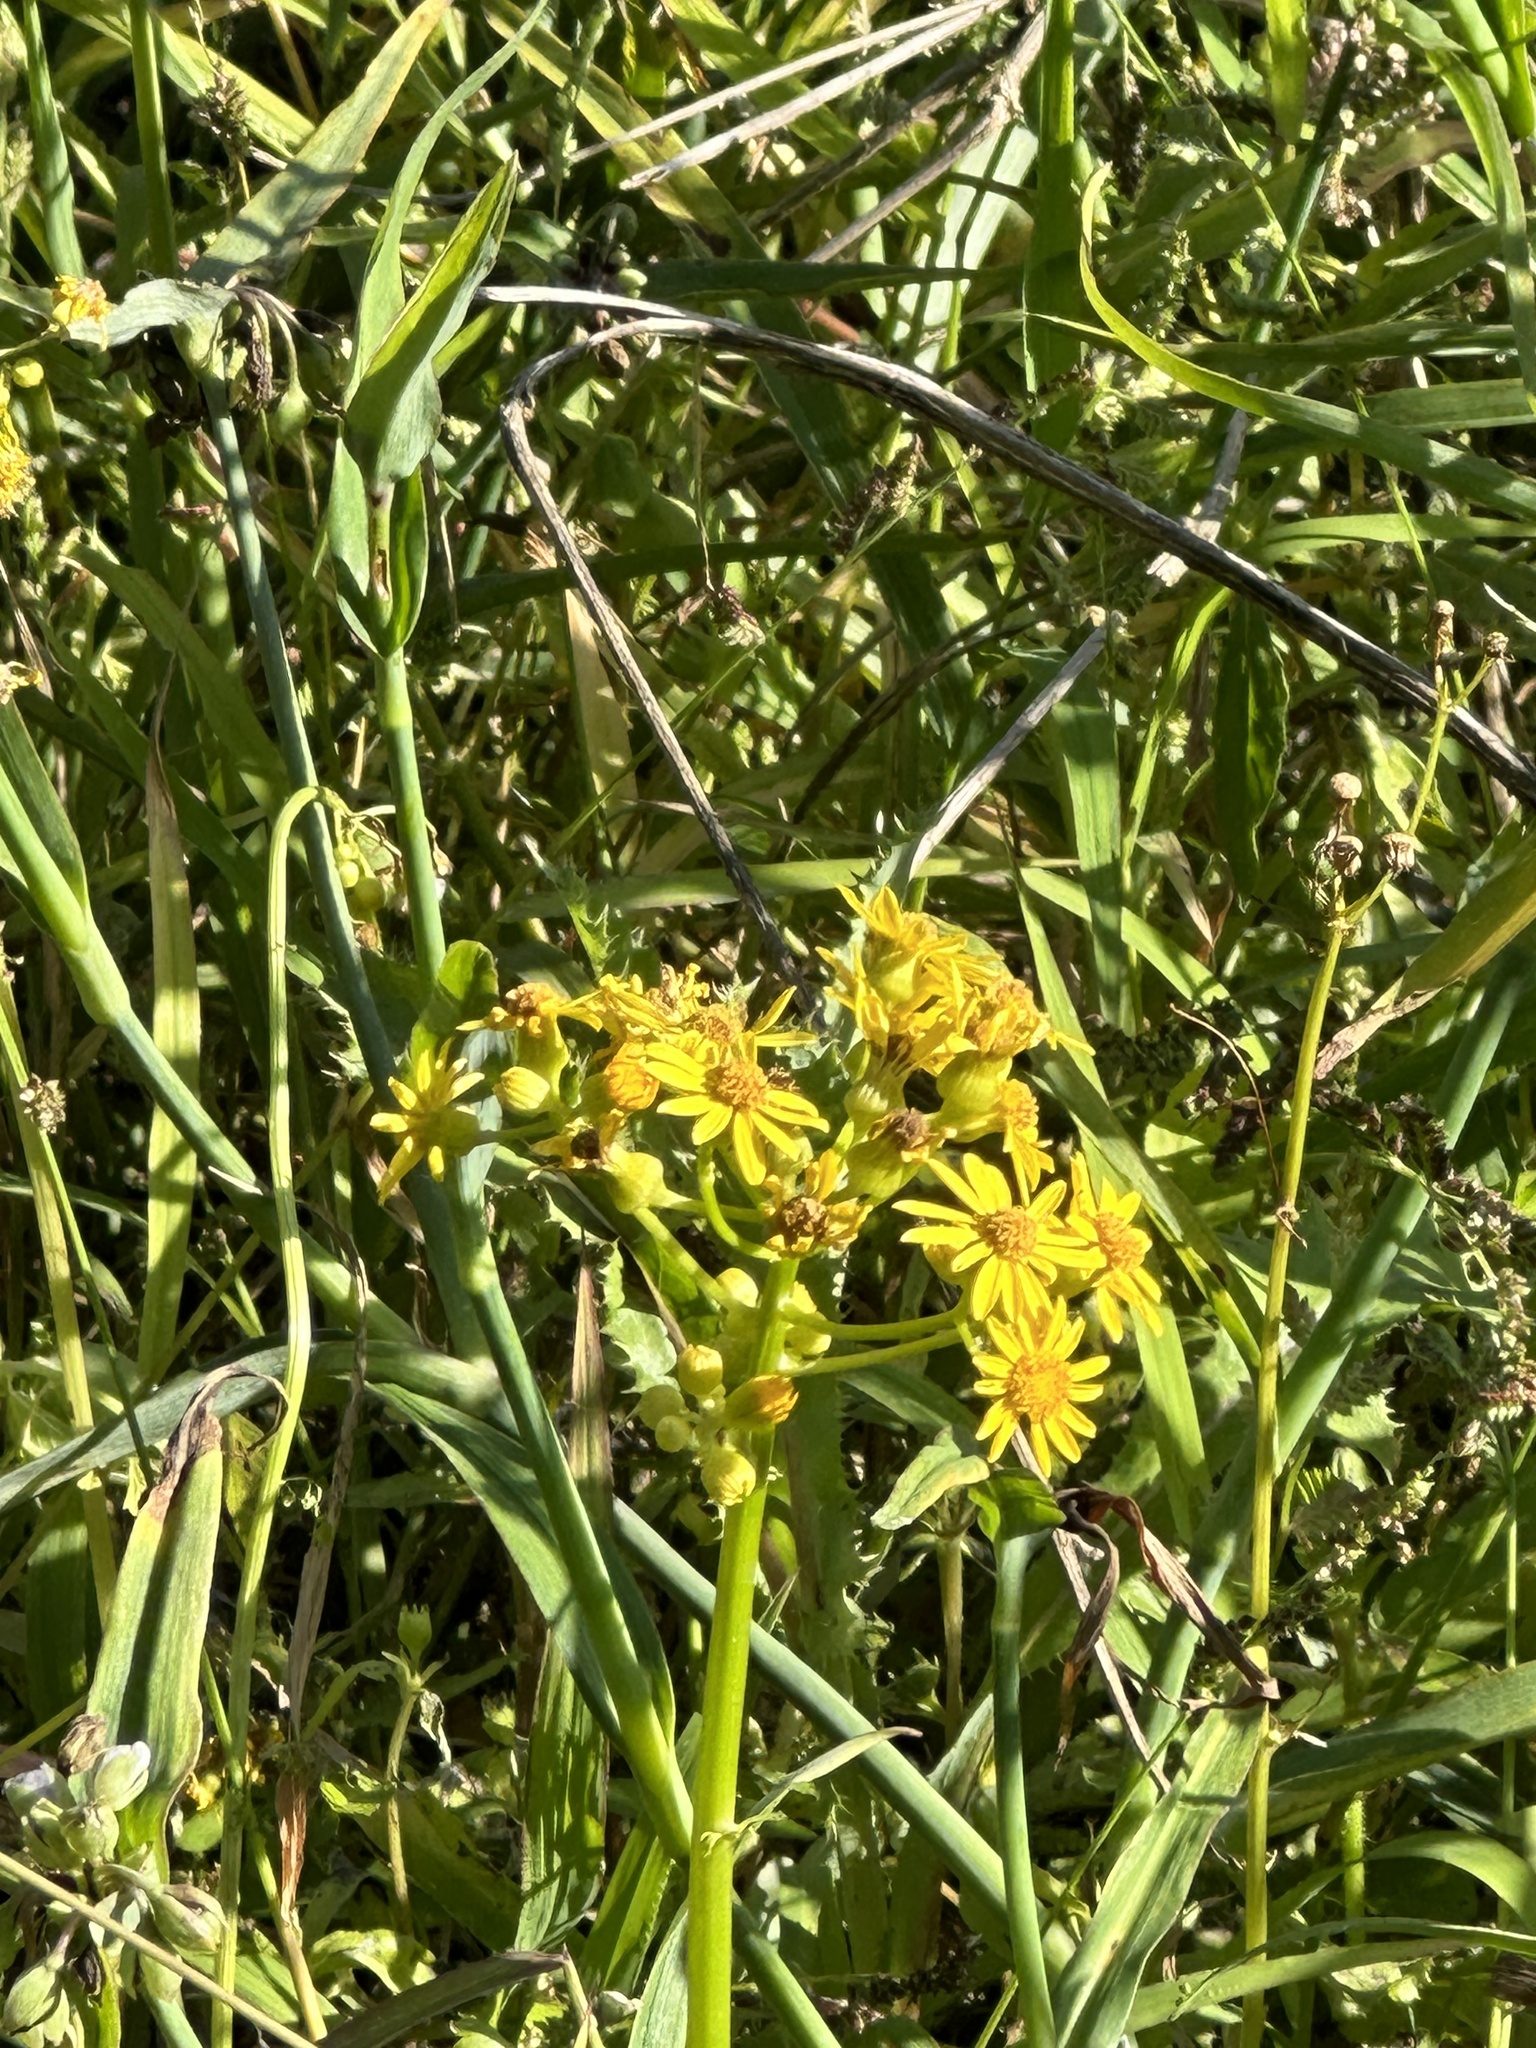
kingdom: Plantae
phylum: Tracheophyta
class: Magnoliopsida
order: Asterales
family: Asteraceae
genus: Packera
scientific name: Packera glabella
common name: Butterweed
